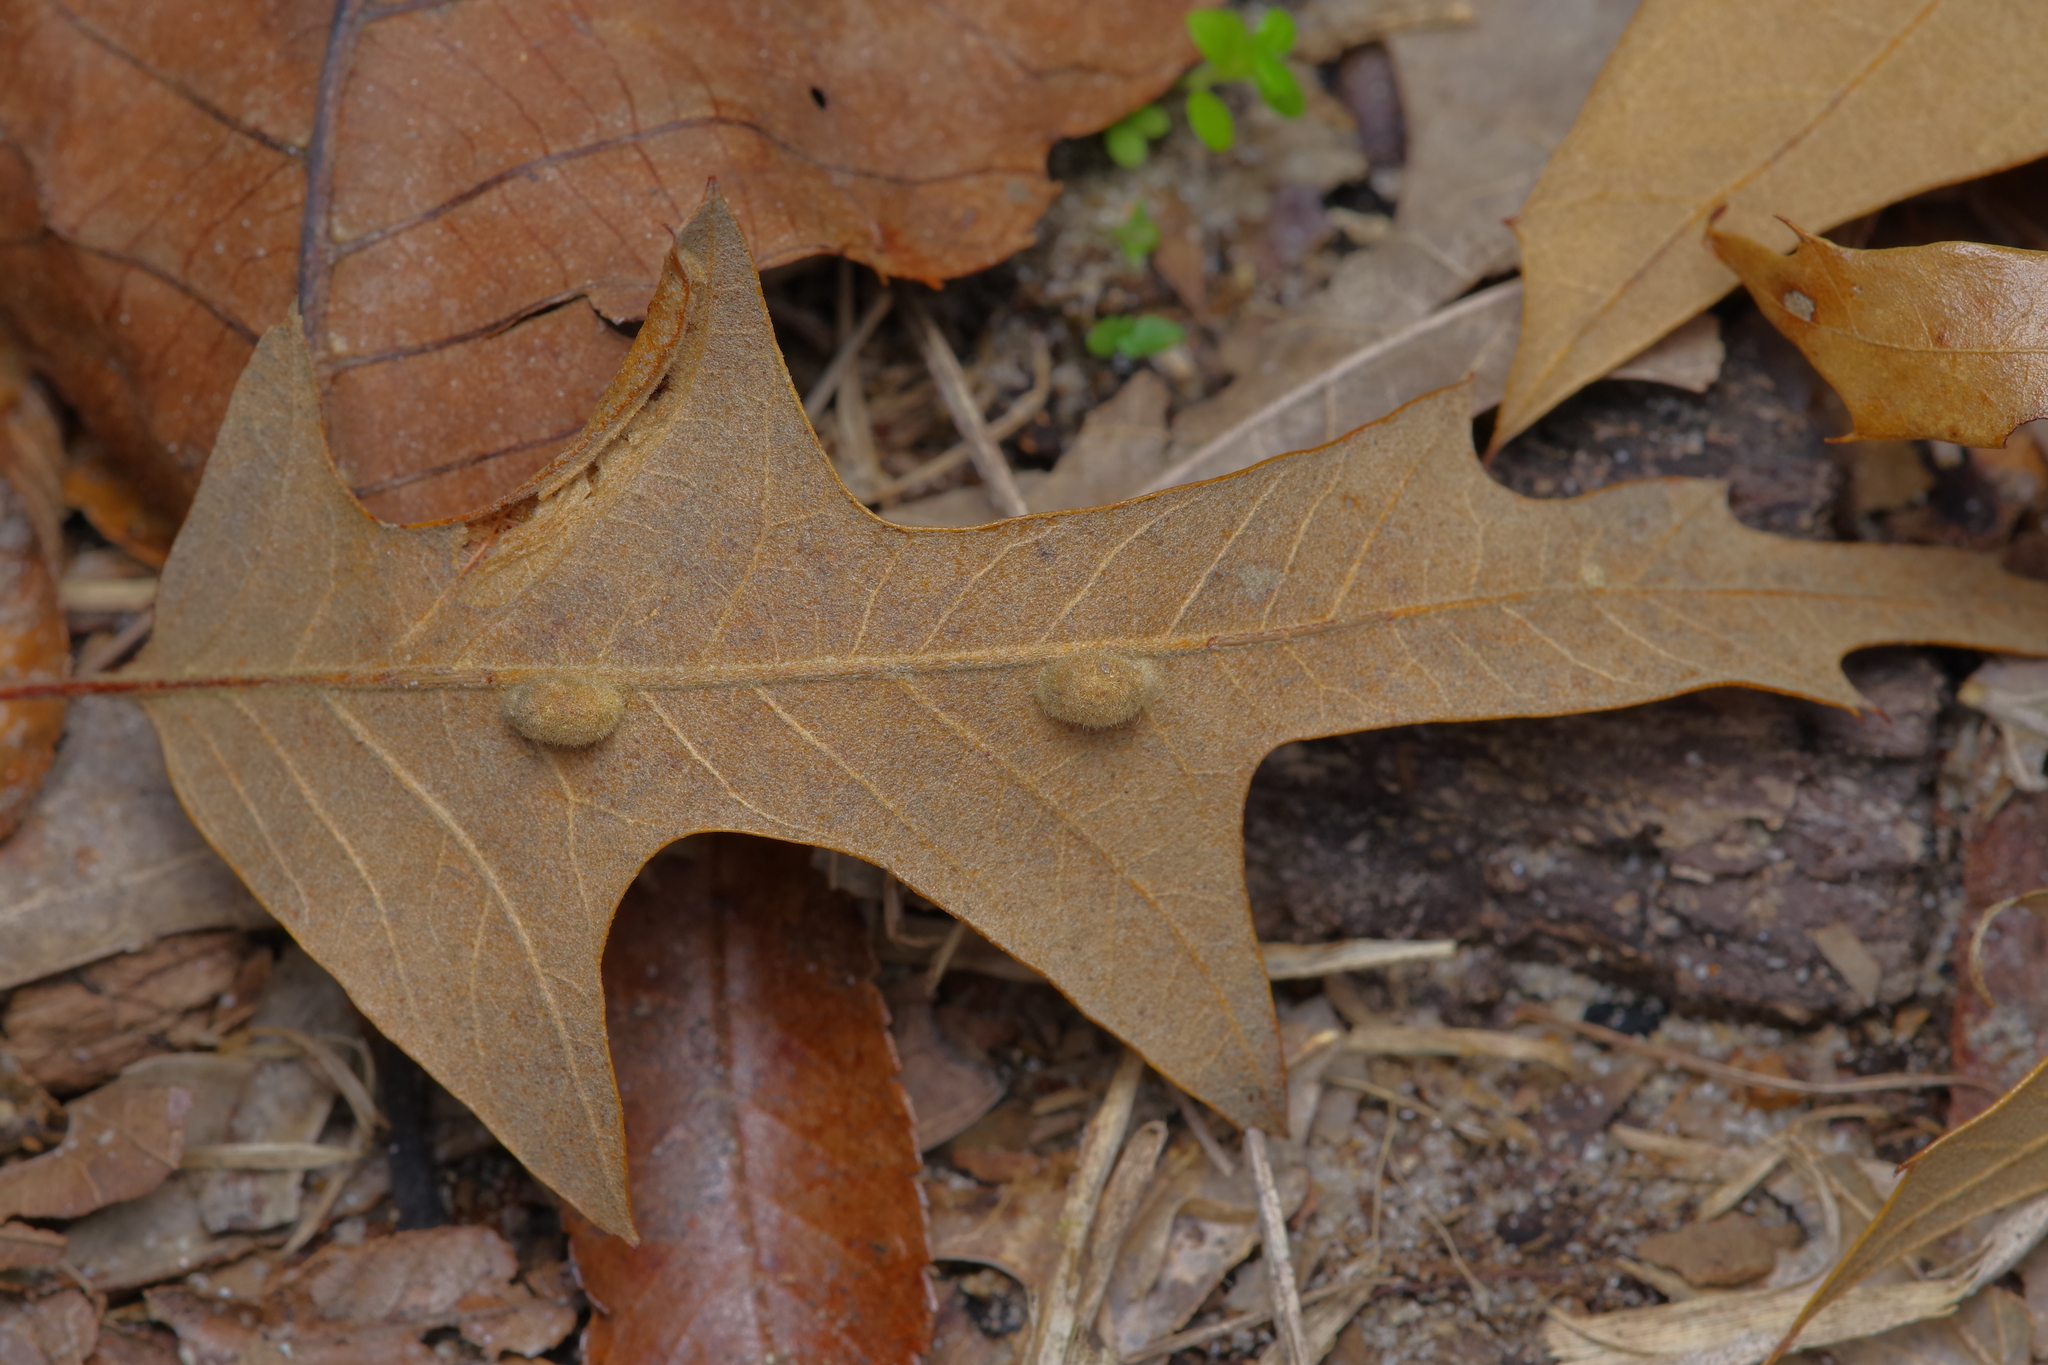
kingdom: Animalia
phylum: Arthropoda
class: Insecta
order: Diptera
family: Cecidomyiidae
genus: Macrodiplosis
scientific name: Macrodiplosis niveipila
